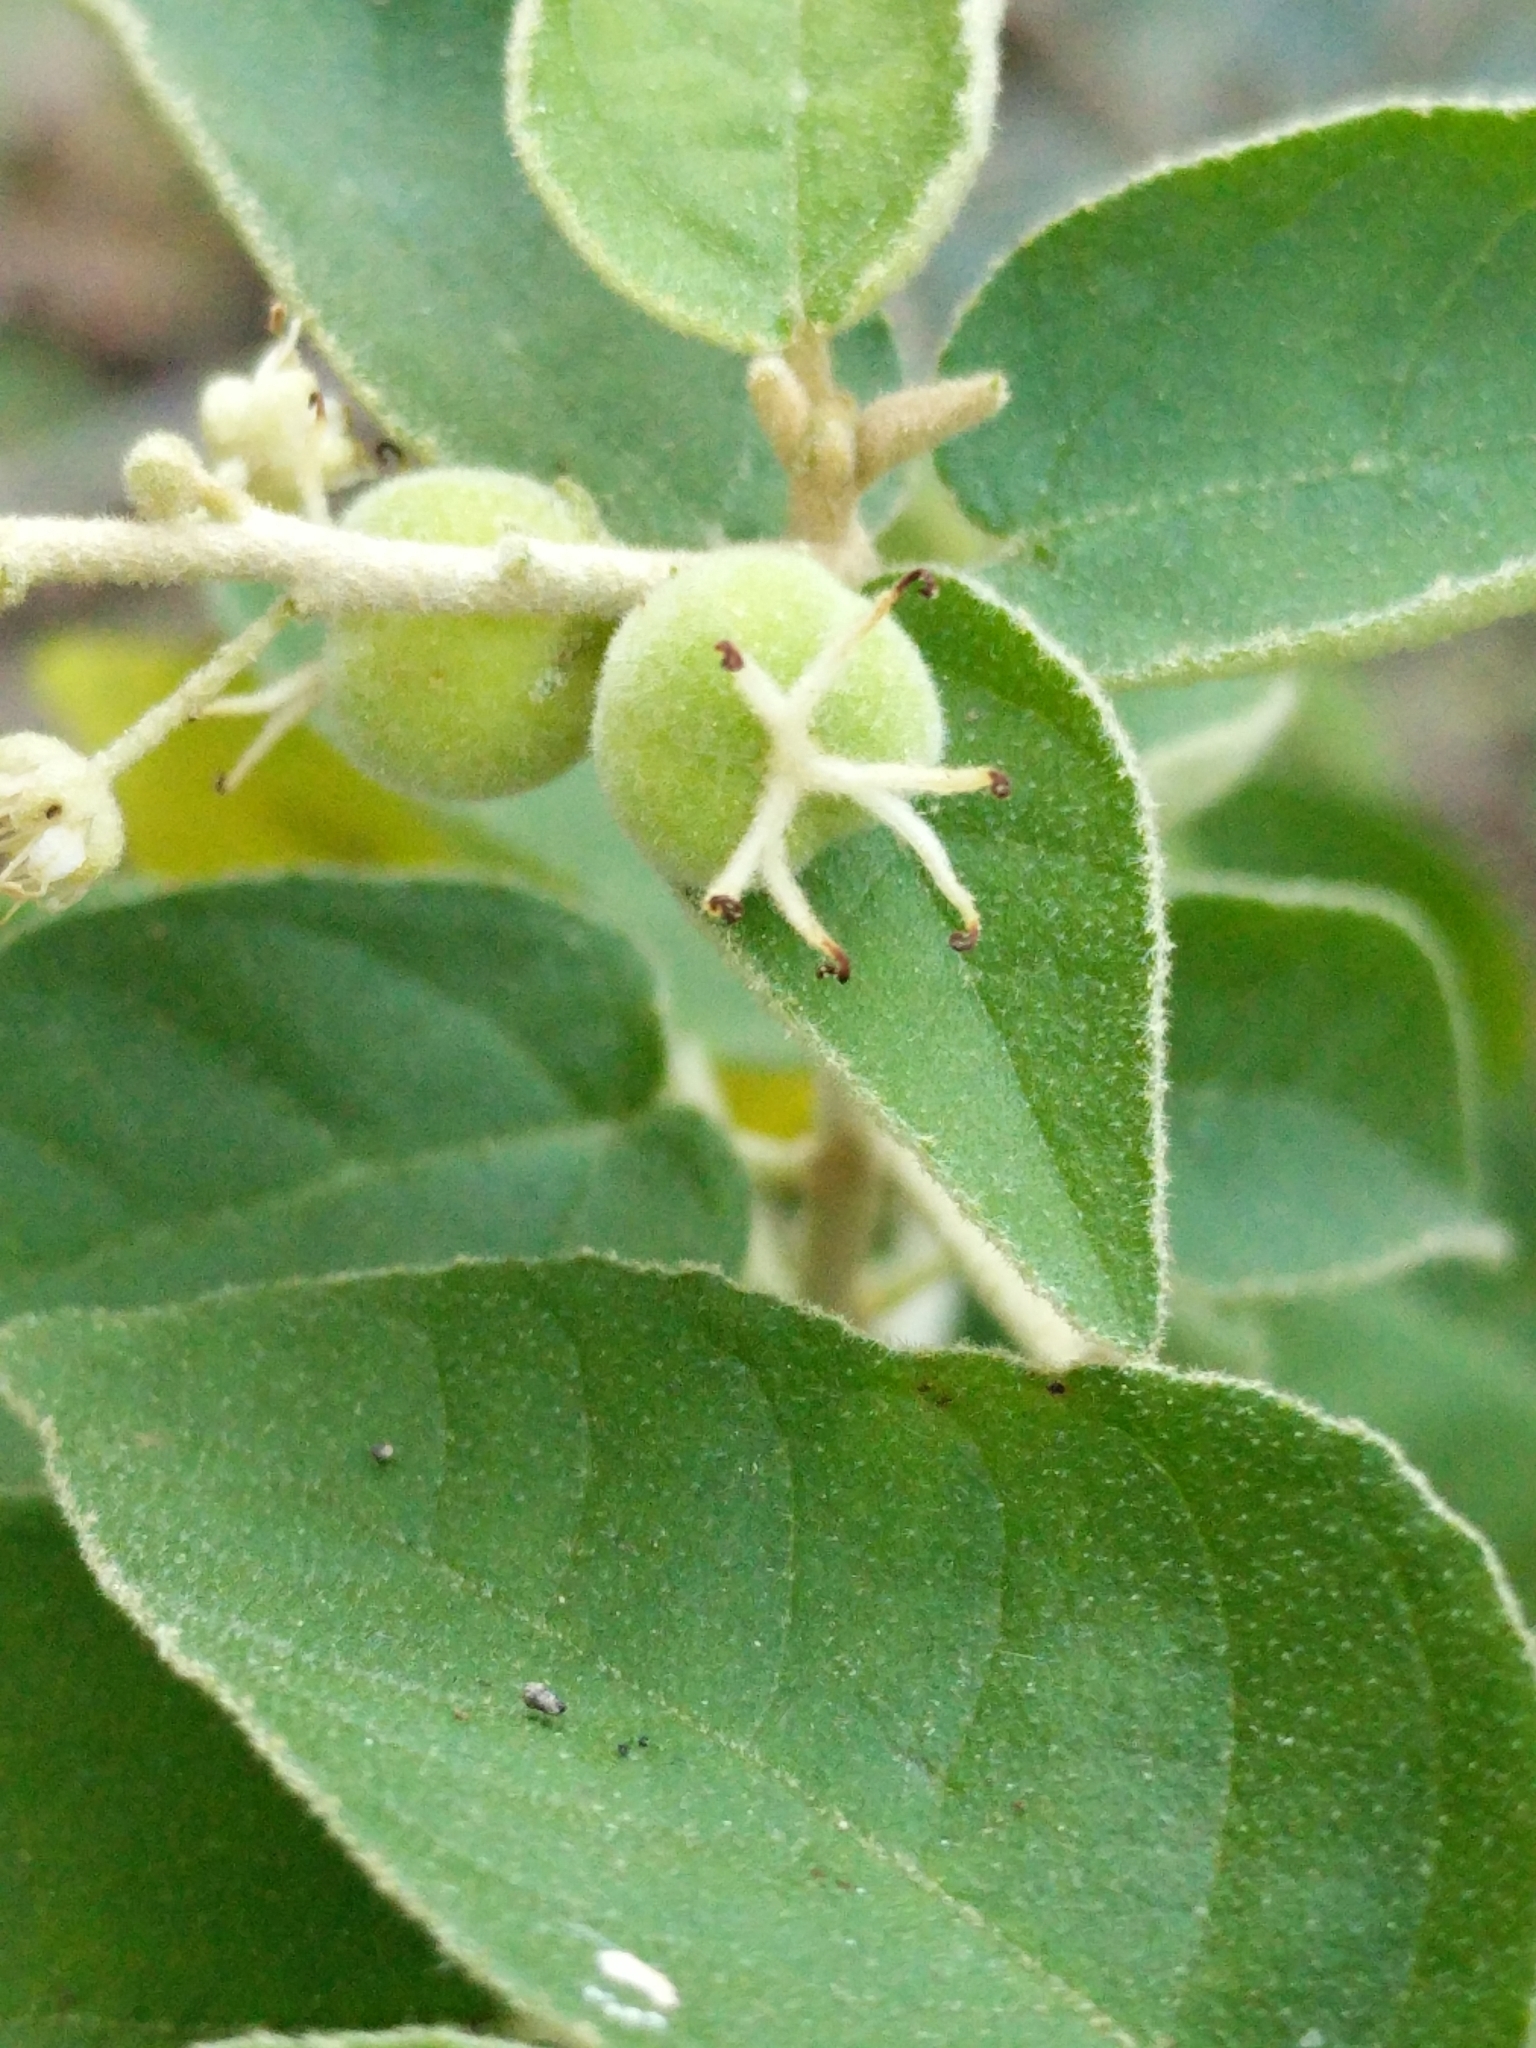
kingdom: Plantae
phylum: Tracheophyta
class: Magnoliopsida
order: Malpighiales
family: Euphorbiaceae
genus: Croton
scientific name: Croton fruticulosus
